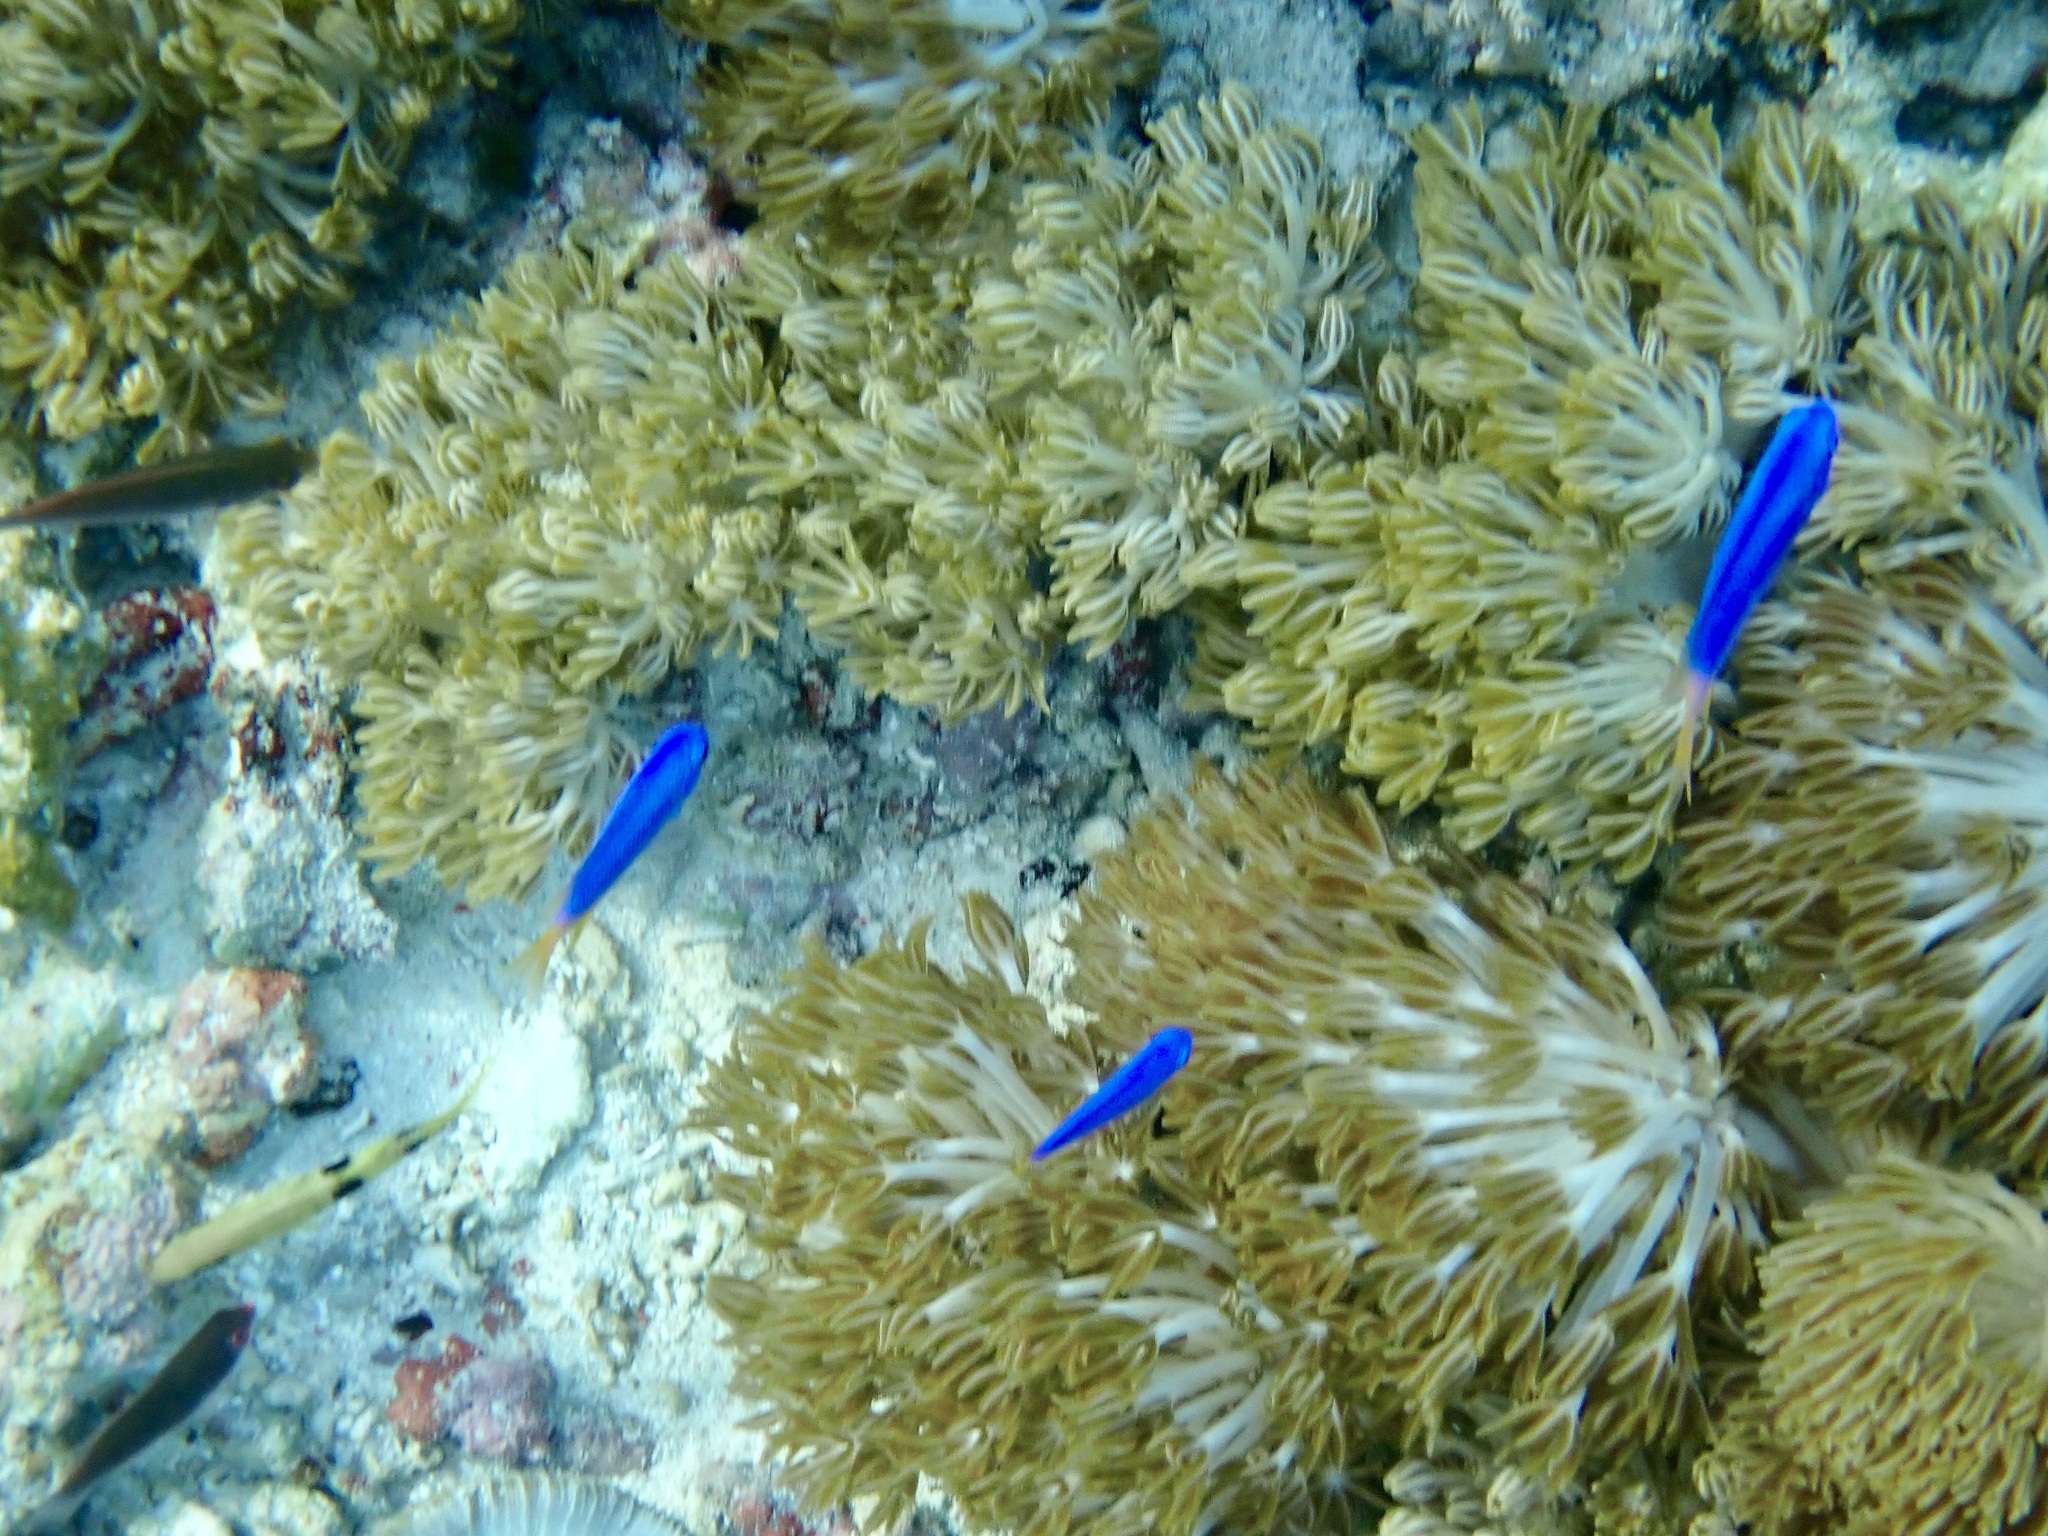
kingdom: Animalia
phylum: Chordata
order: Perciformes
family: Pomacentridae
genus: Pomacentrus
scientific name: Pomacentrus coelestis
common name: Neon damsel
